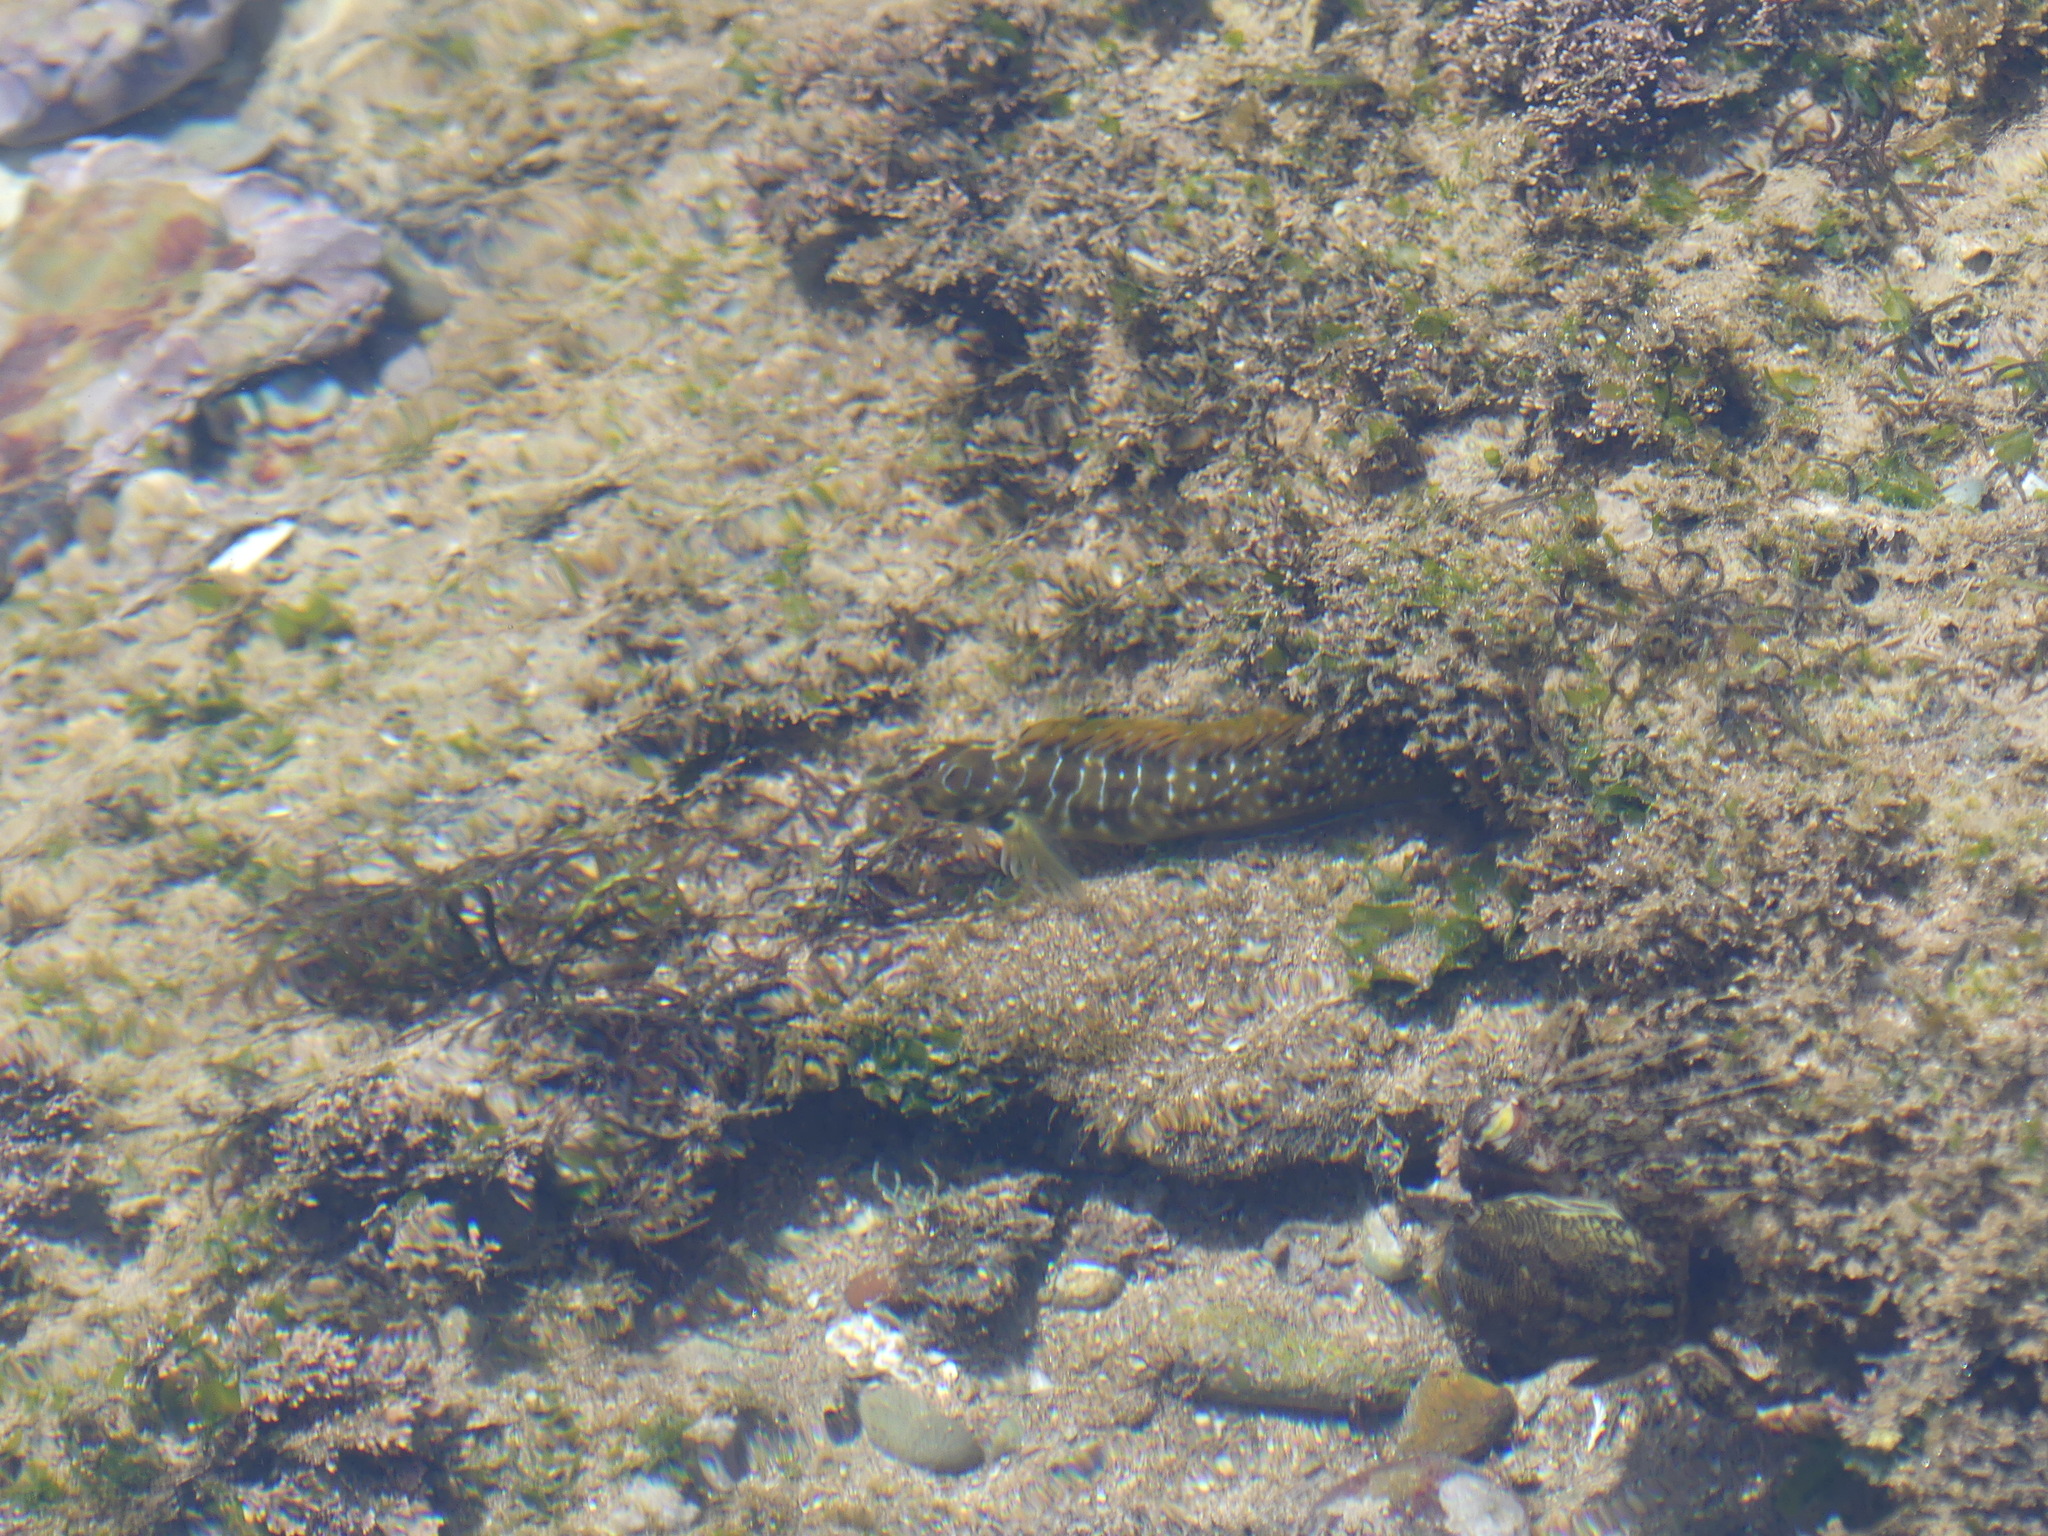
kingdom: Animalia
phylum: Chordata
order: Perciformes
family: Blenniidae
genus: Salaria
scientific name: Salaria pavo
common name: Peacock blenny
